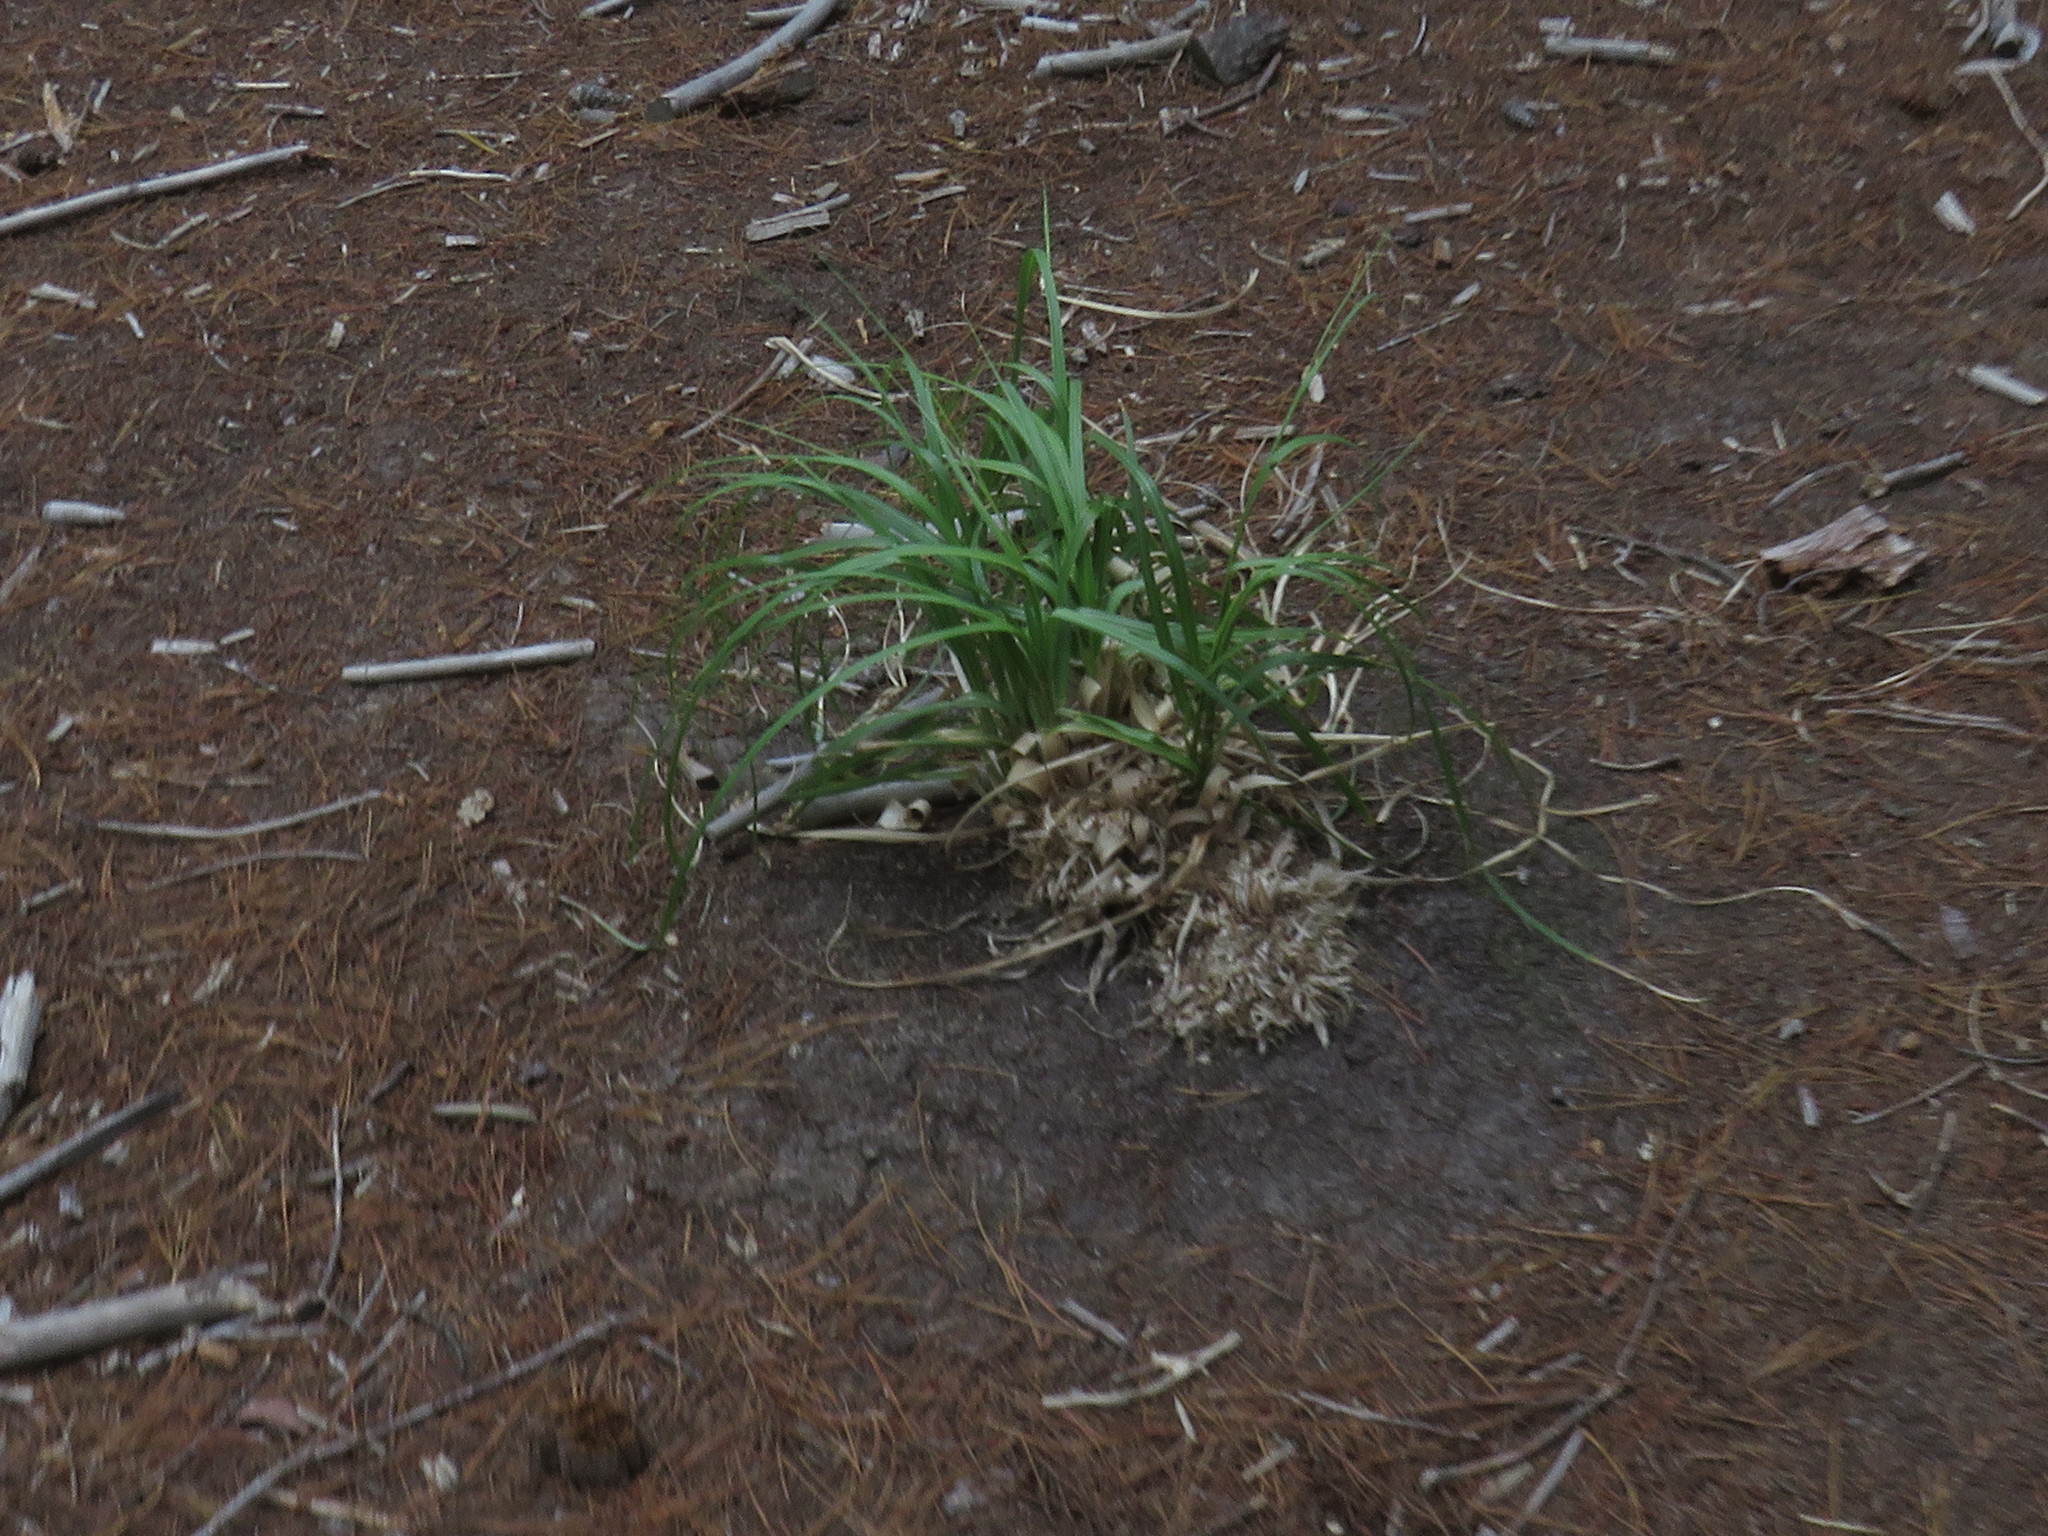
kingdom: Plantae
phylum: Tracheophyta
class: Liliopsida
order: Poales
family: Poaceae
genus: Cortaderia
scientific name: Cortaderia selloana
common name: Uruguayan pampas grass
